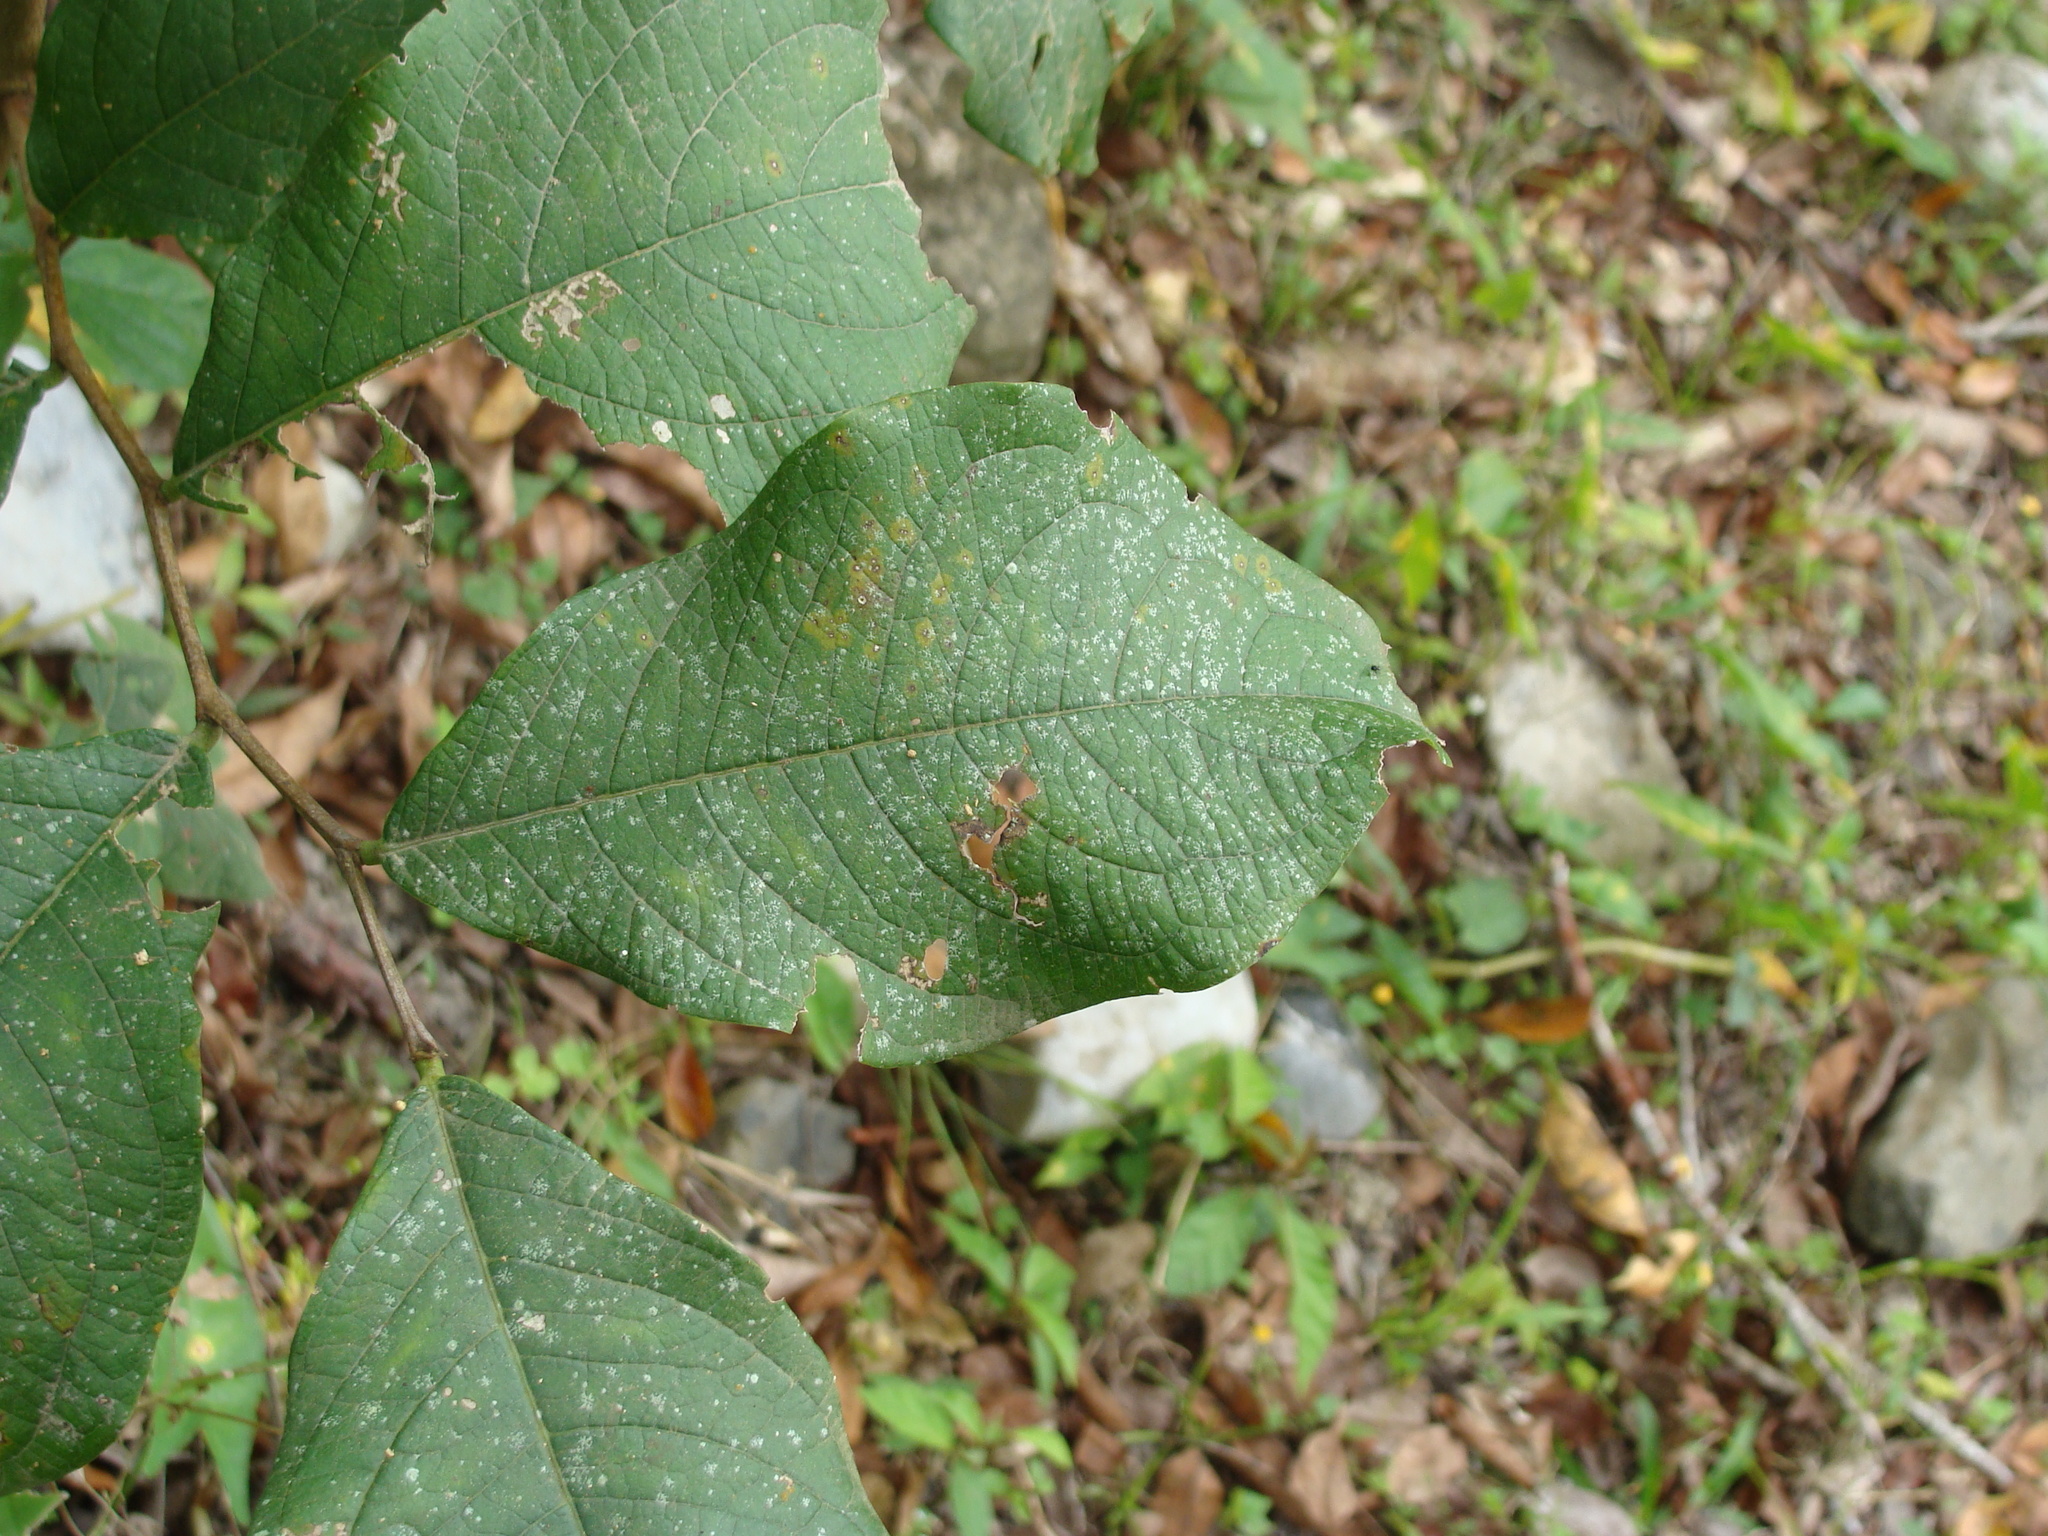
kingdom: Plantae
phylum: Tracheophyta
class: Magnoliopsida
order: Malpighiales
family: Phyllanthaceae
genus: Phyllanthus
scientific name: Phyllanthus grandifolius
